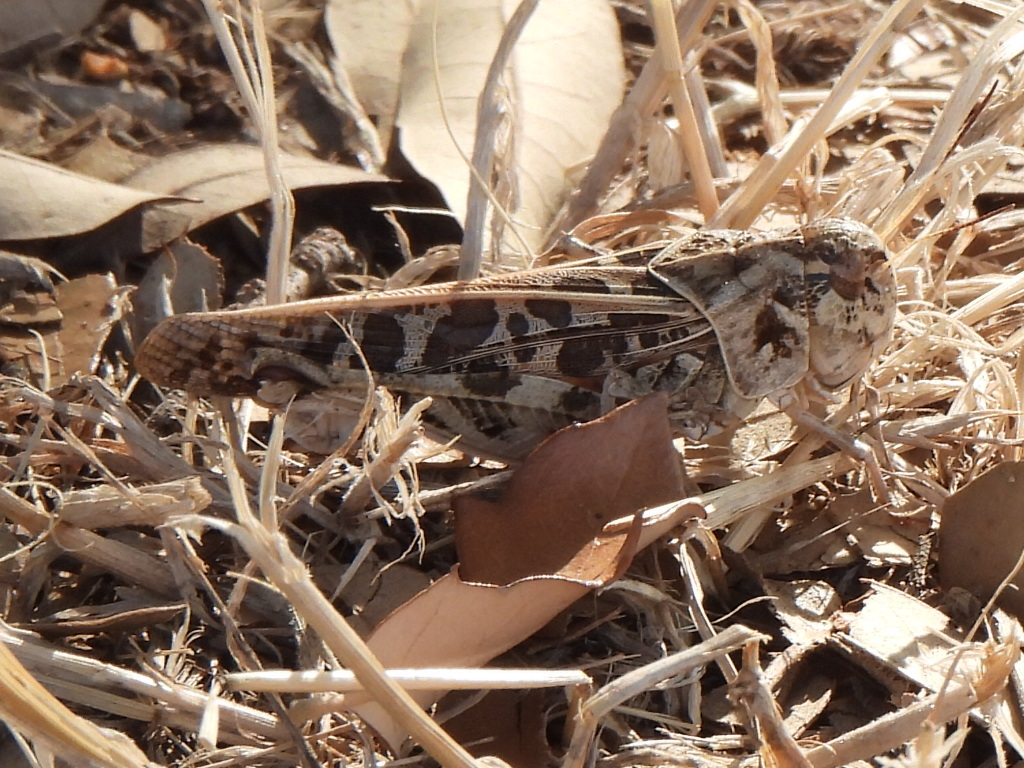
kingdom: Animalia
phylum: Arthropoda
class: Insecta
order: Orthoptera
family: Acrididae
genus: Hippiscus
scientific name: Hippiscus ocelote
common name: Wrinkled grasshopper
